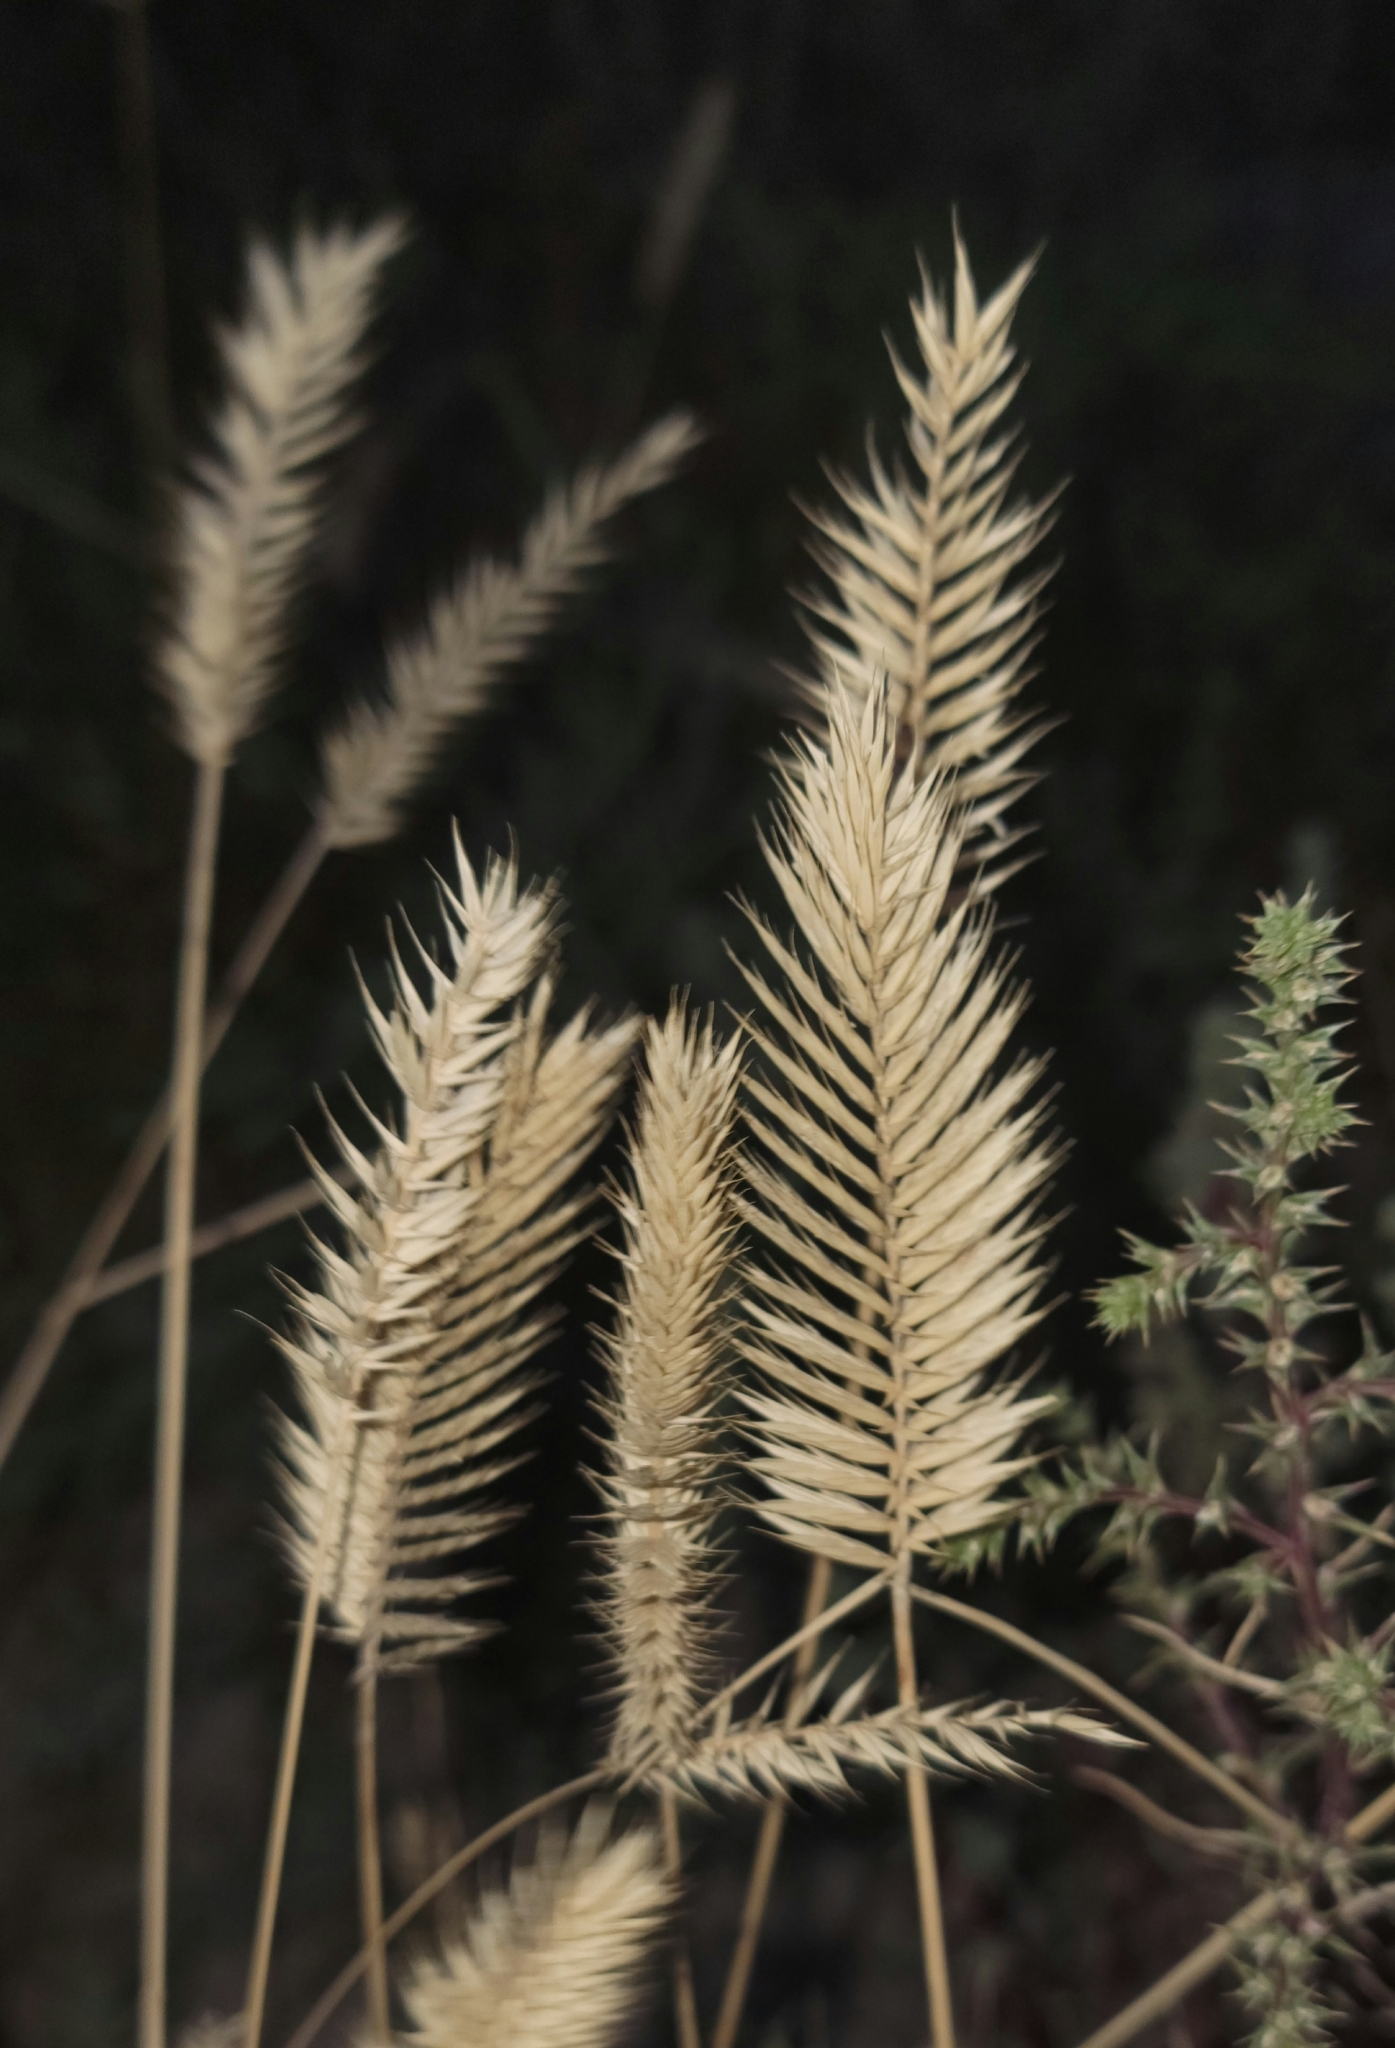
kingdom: Plantae
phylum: Tracheophyta
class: Liliopsida
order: Poales
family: Poaceae
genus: Agropyron
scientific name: Agropyron cristatum
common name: Crested wheatgrass
